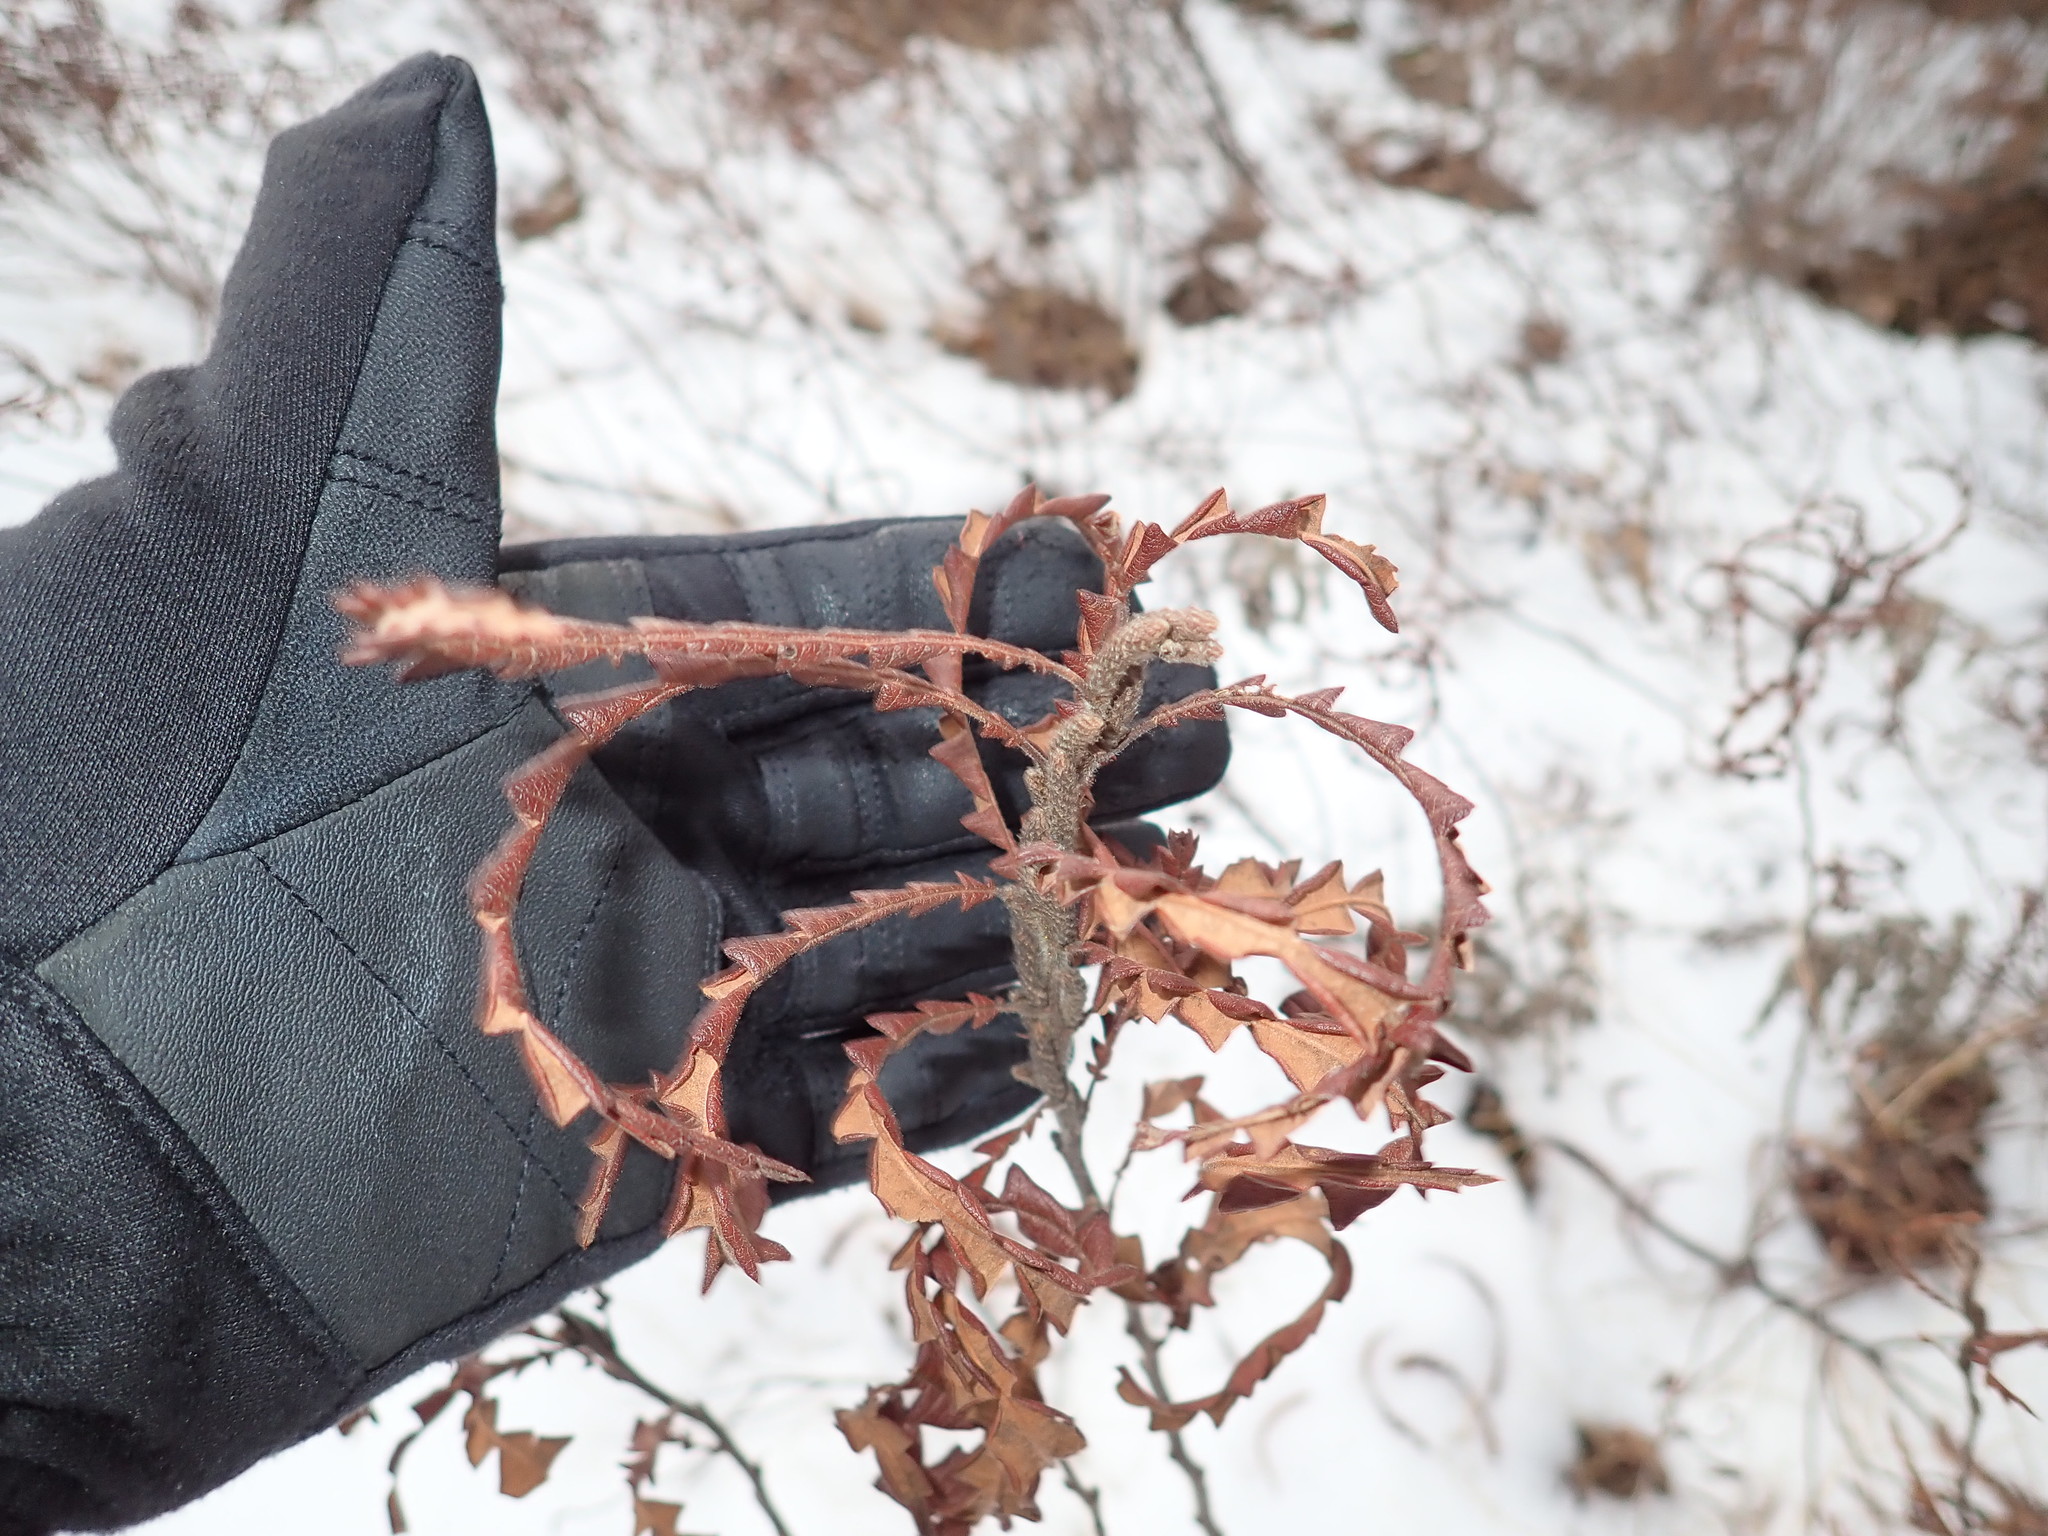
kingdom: Plantae
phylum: Tracheophyta
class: Magnoliopsida
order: Fagales
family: Myricaceae
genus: Comptonia
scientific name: Comptonia peregrina
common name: Sweet-fern
